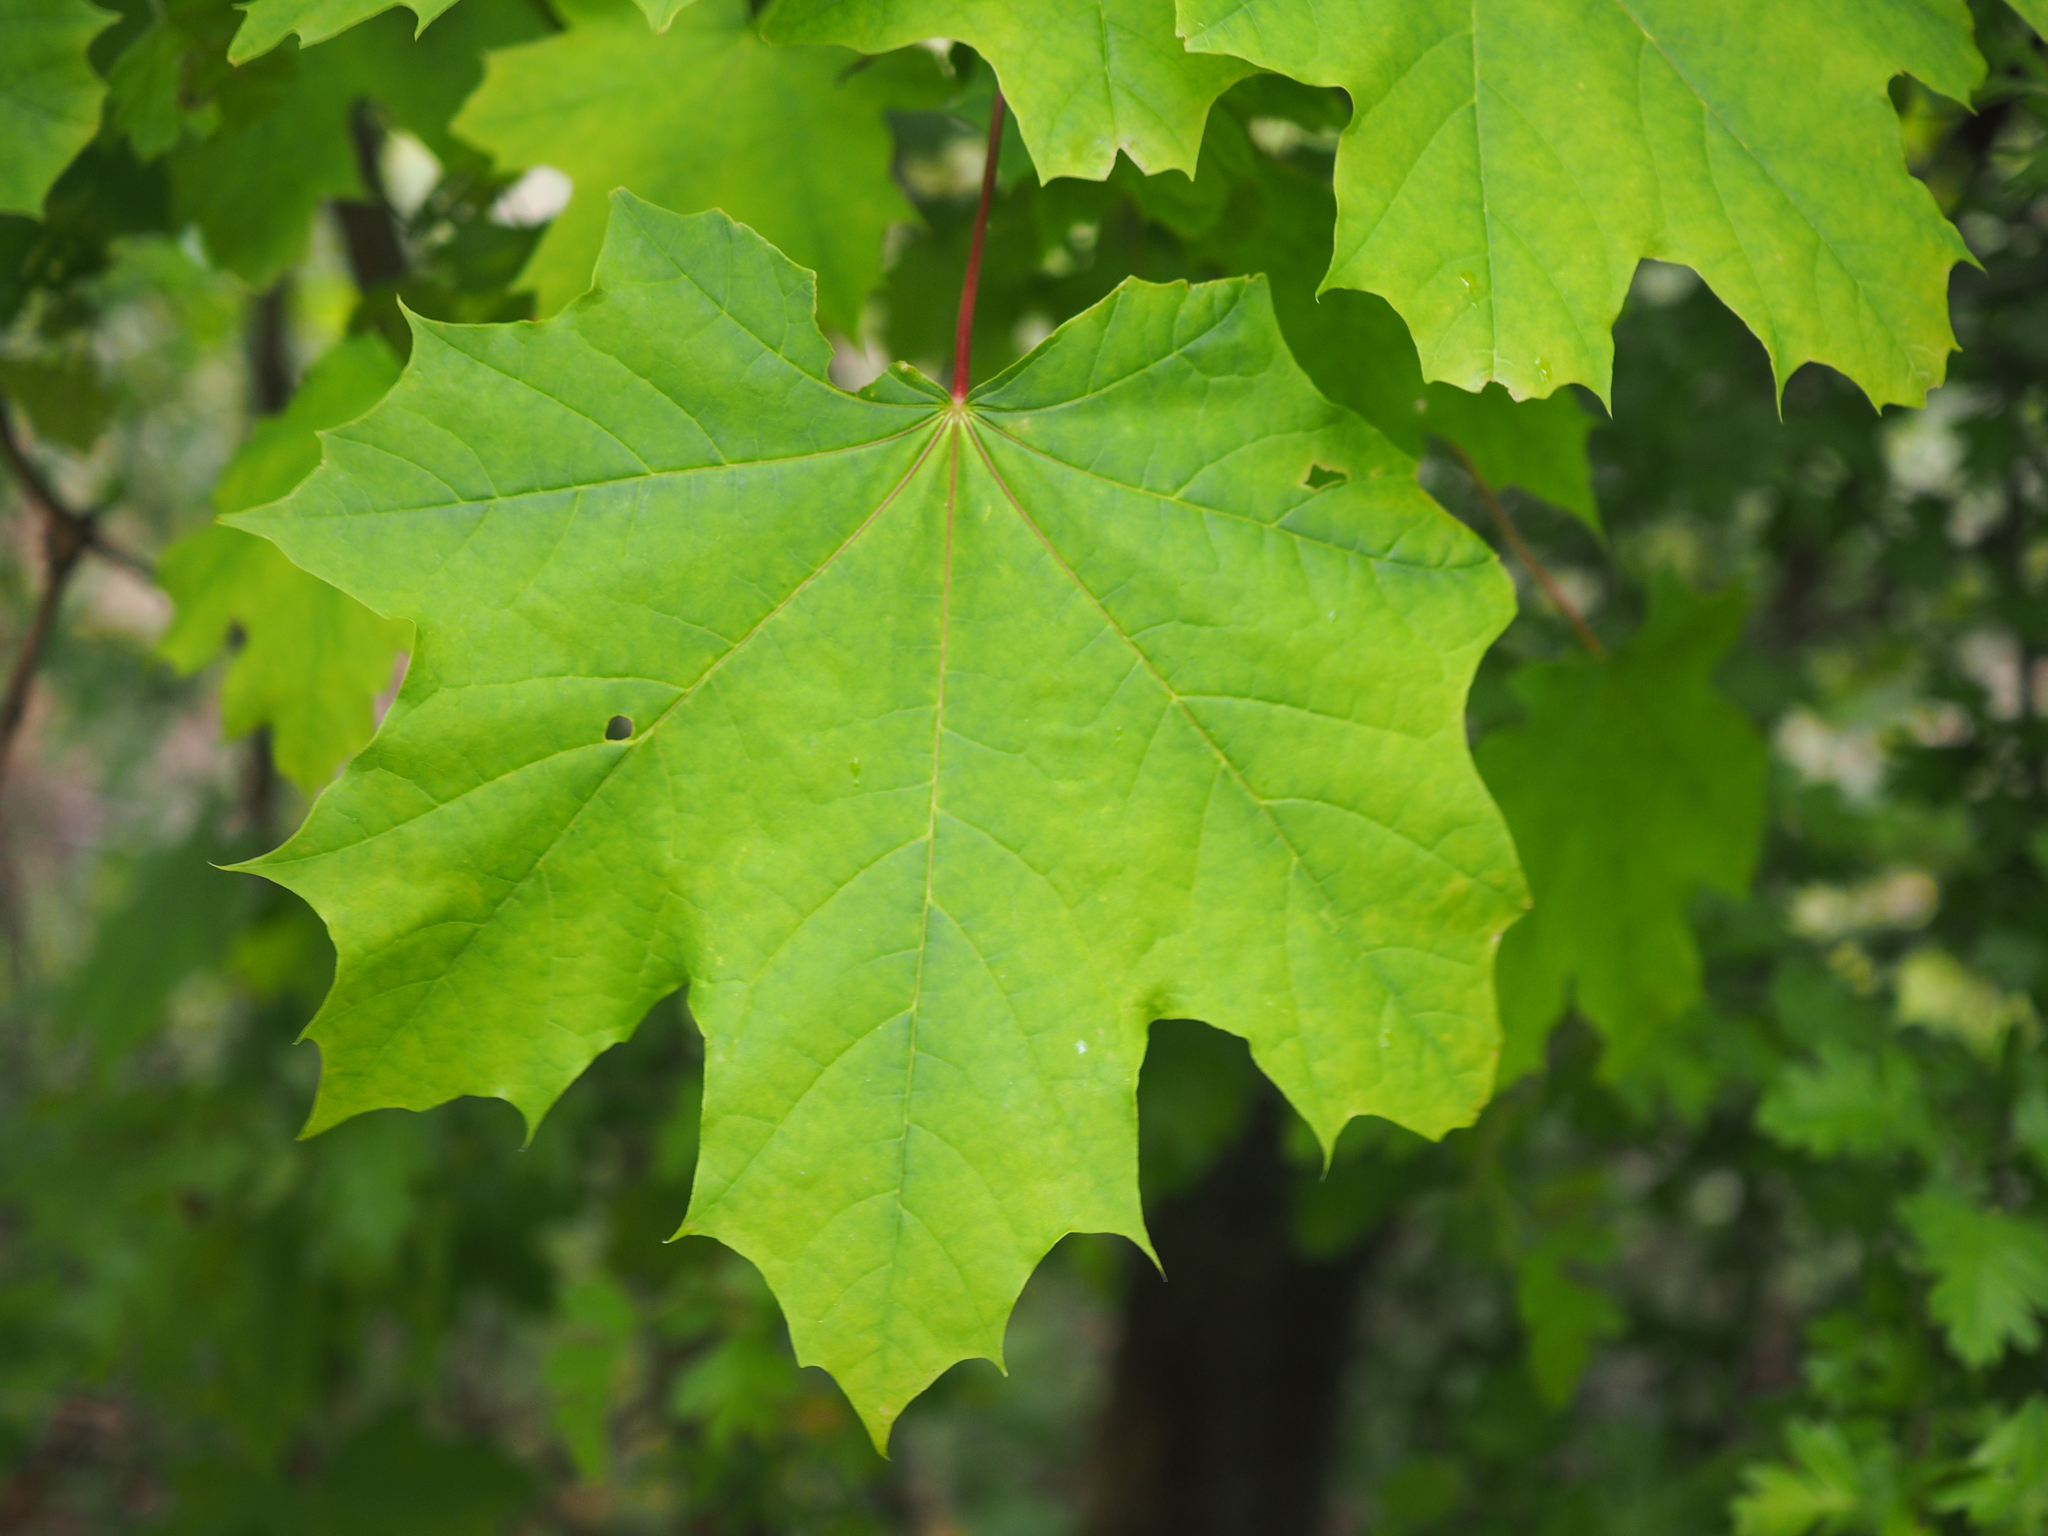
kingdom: Plantae
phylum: Tracheophyta
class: Magnoliopsida
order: Sapindales
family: Sapindaceae
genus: Acer
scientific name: Acer platanoides
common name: Norway maple
